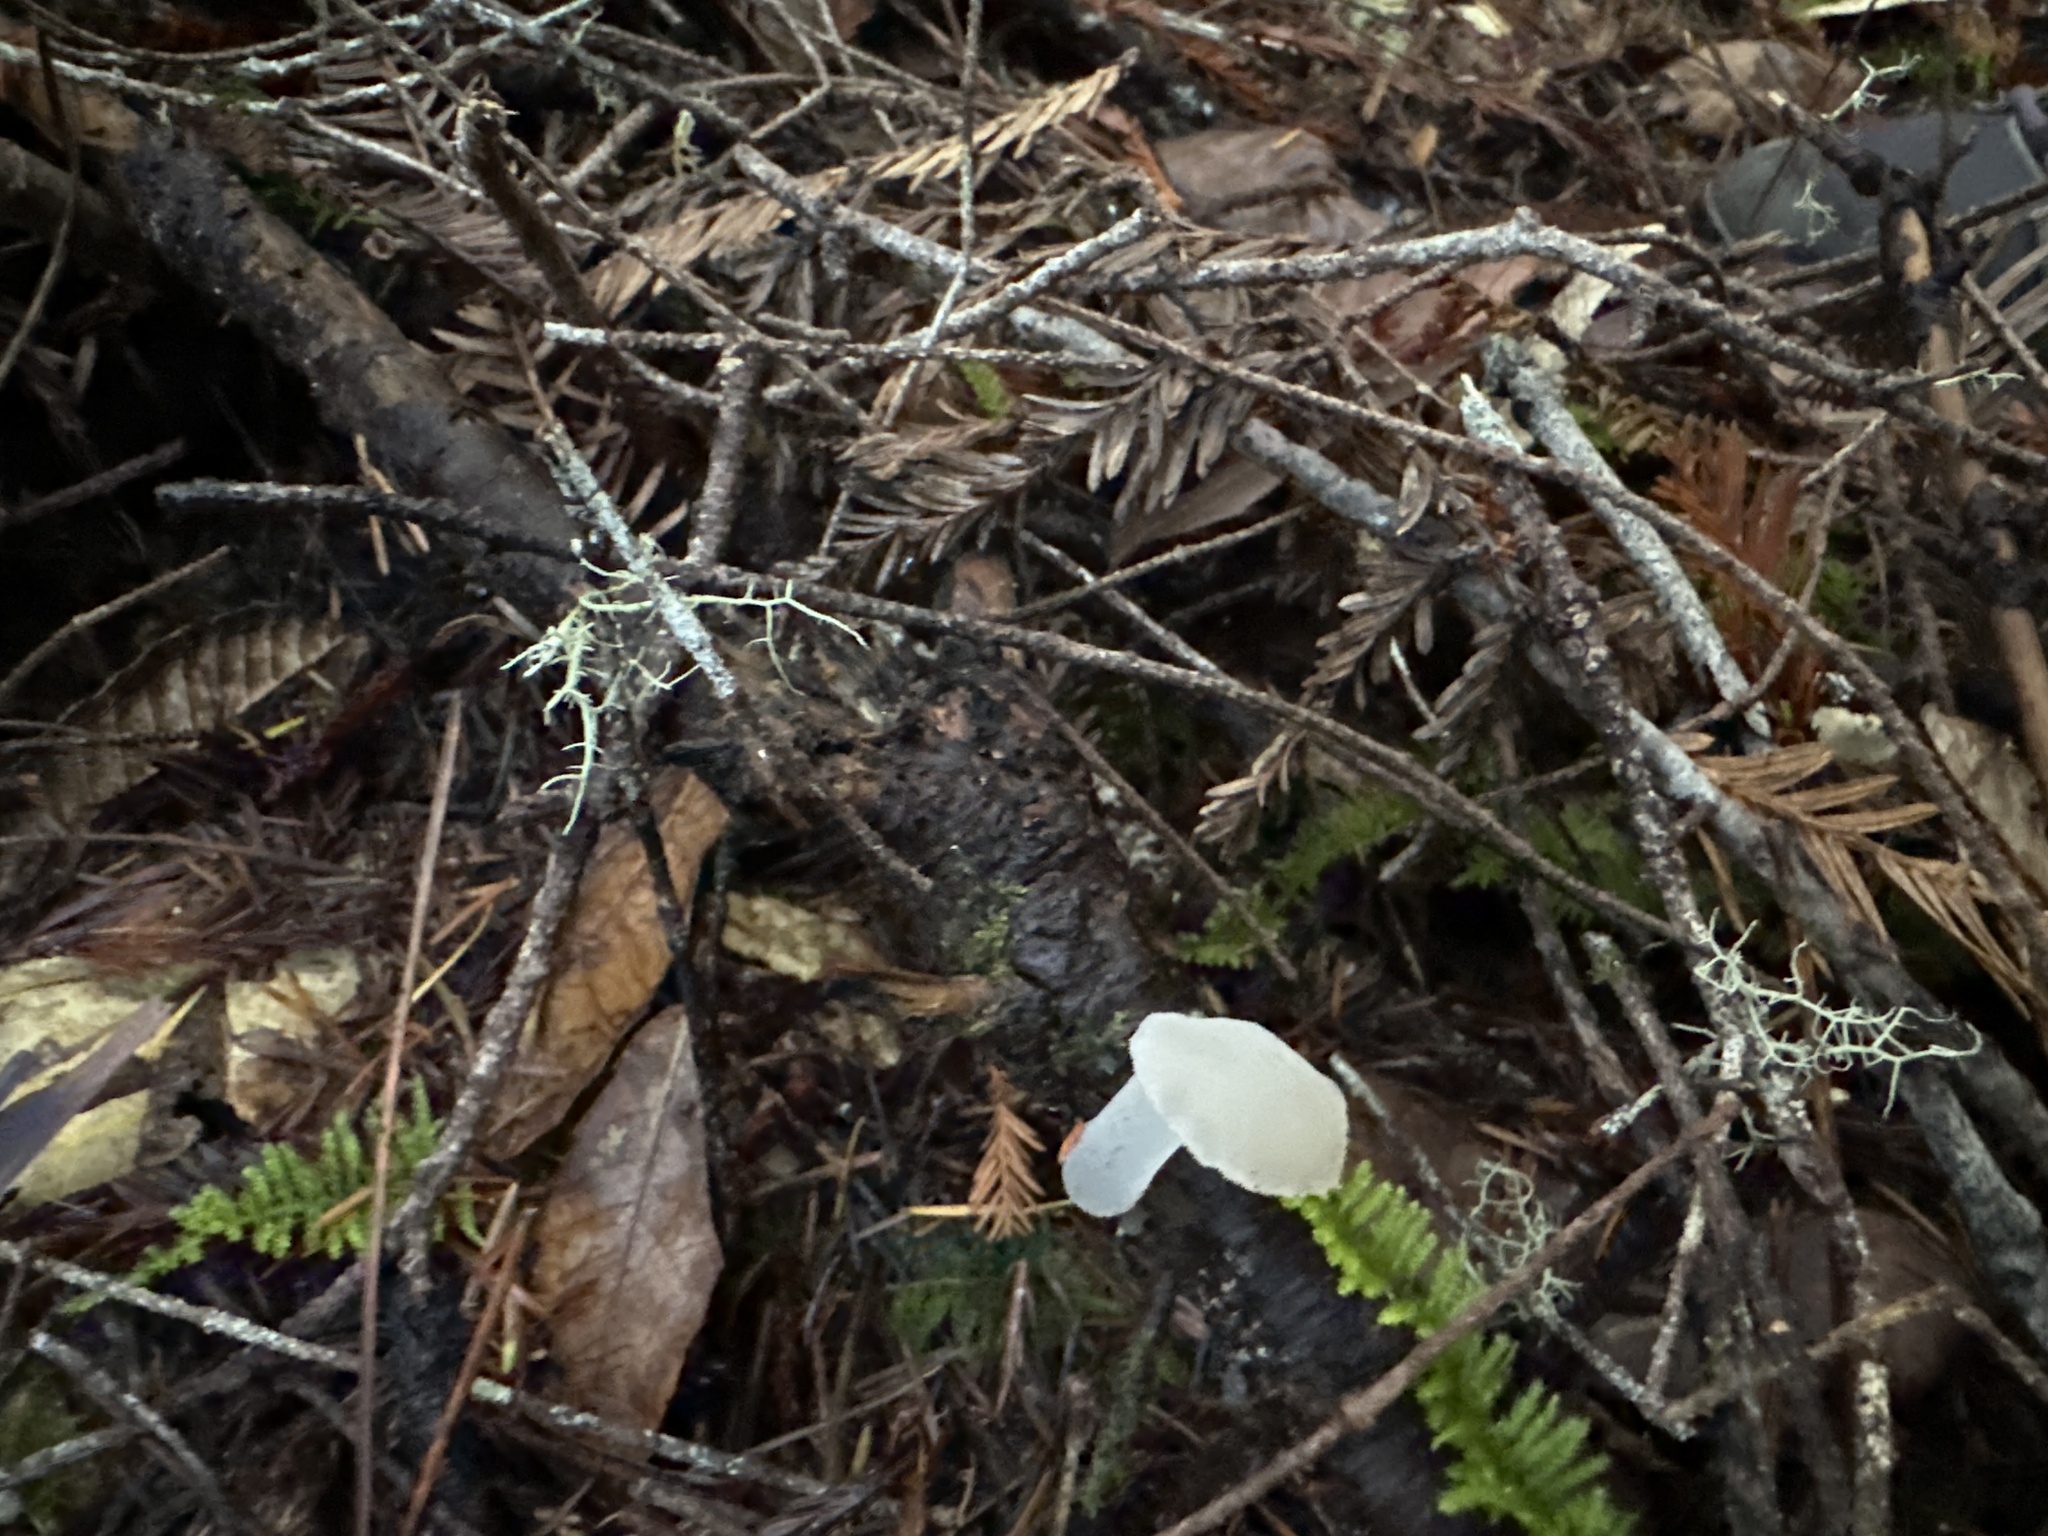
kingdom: Fungi
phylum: Basidiomycota
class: Agaricomycetes
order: Auriculariales
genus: Pseudohydnum
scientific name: Pseudohydnum gelatinosum
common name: Jelly tongue
